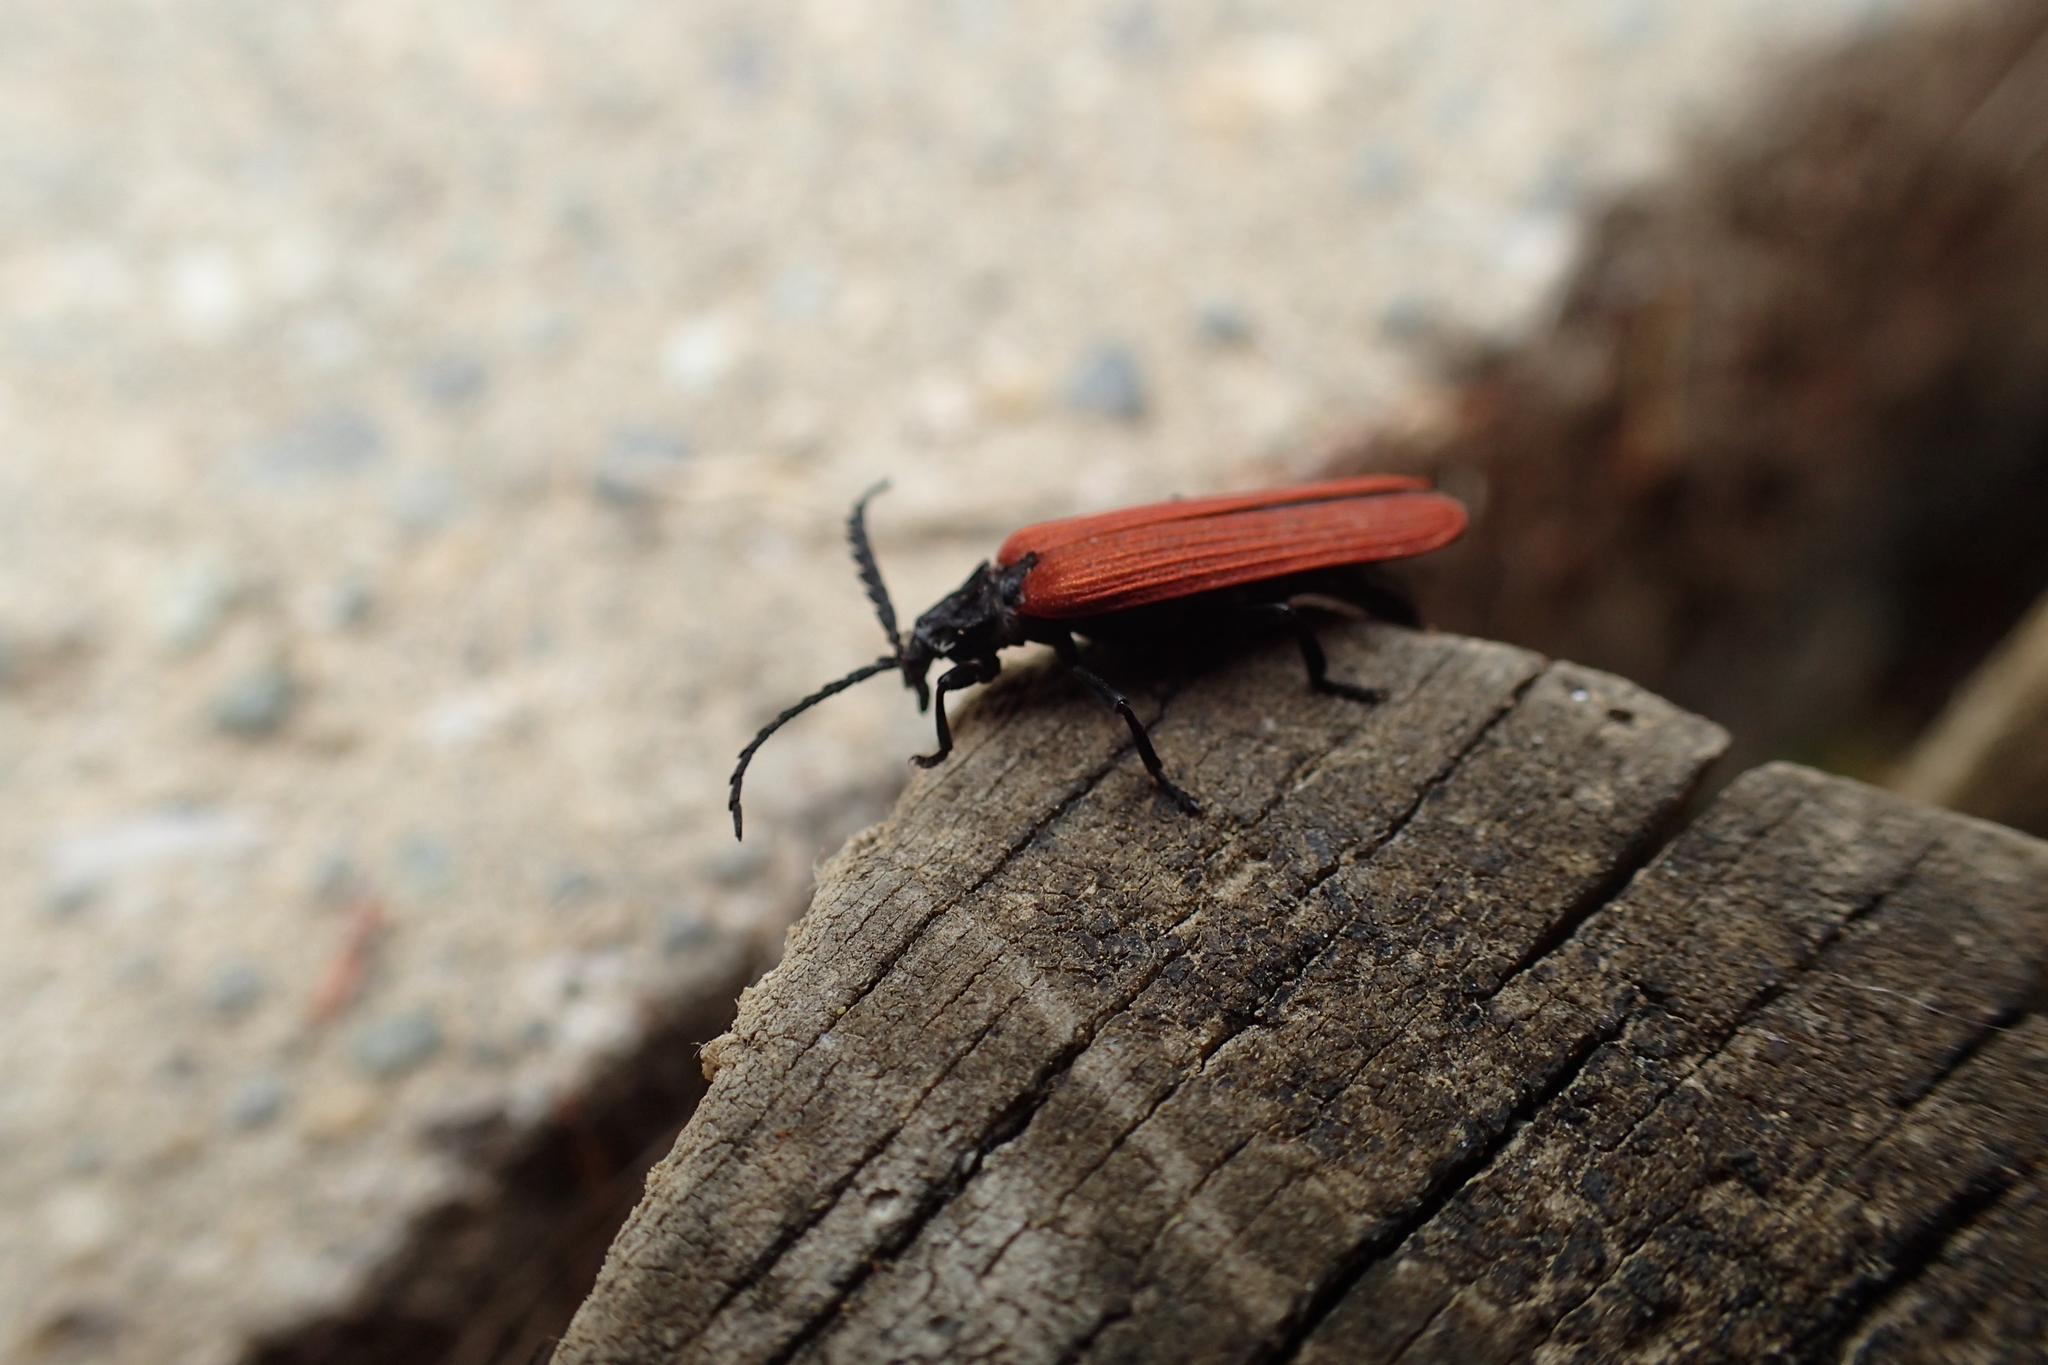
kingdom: Animalia
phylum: Arthropoda
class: Insecta
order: Coleoptera
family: Lycidae
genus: Porrostoma
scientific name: Porrostoma rufipenne
